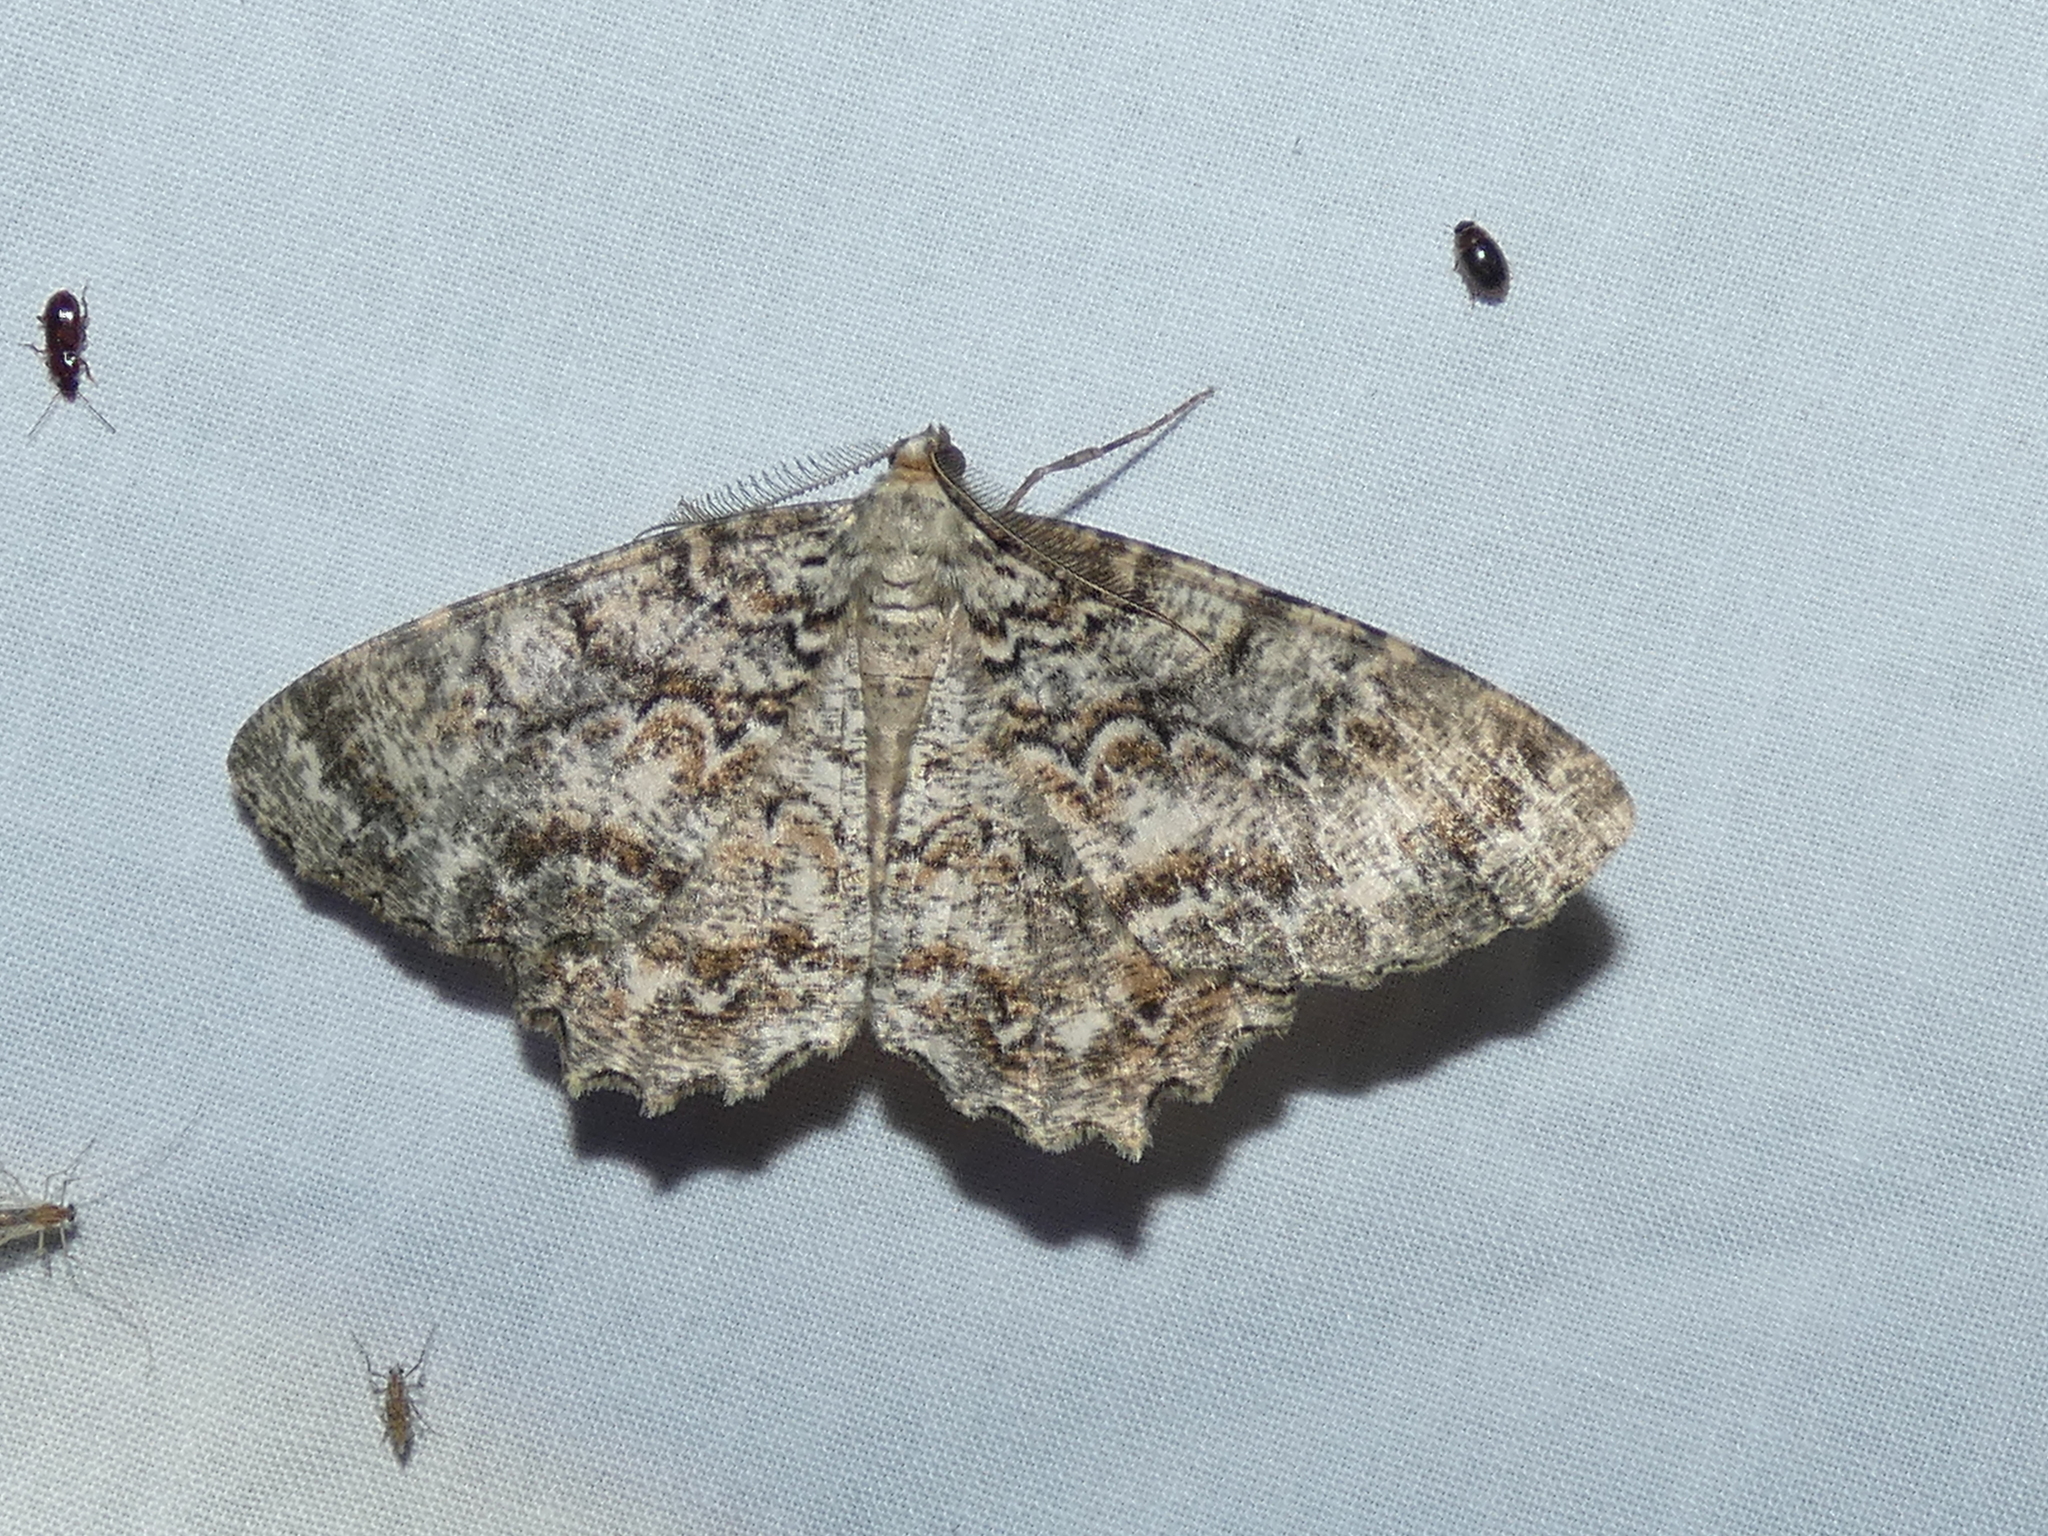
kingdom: Animalia
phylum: Arthropoda
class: Insecta
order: Lepidoptera
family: Geometridae
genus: Epimecis
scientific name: Epimecis hortaria
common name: Tulip-tree beauty
